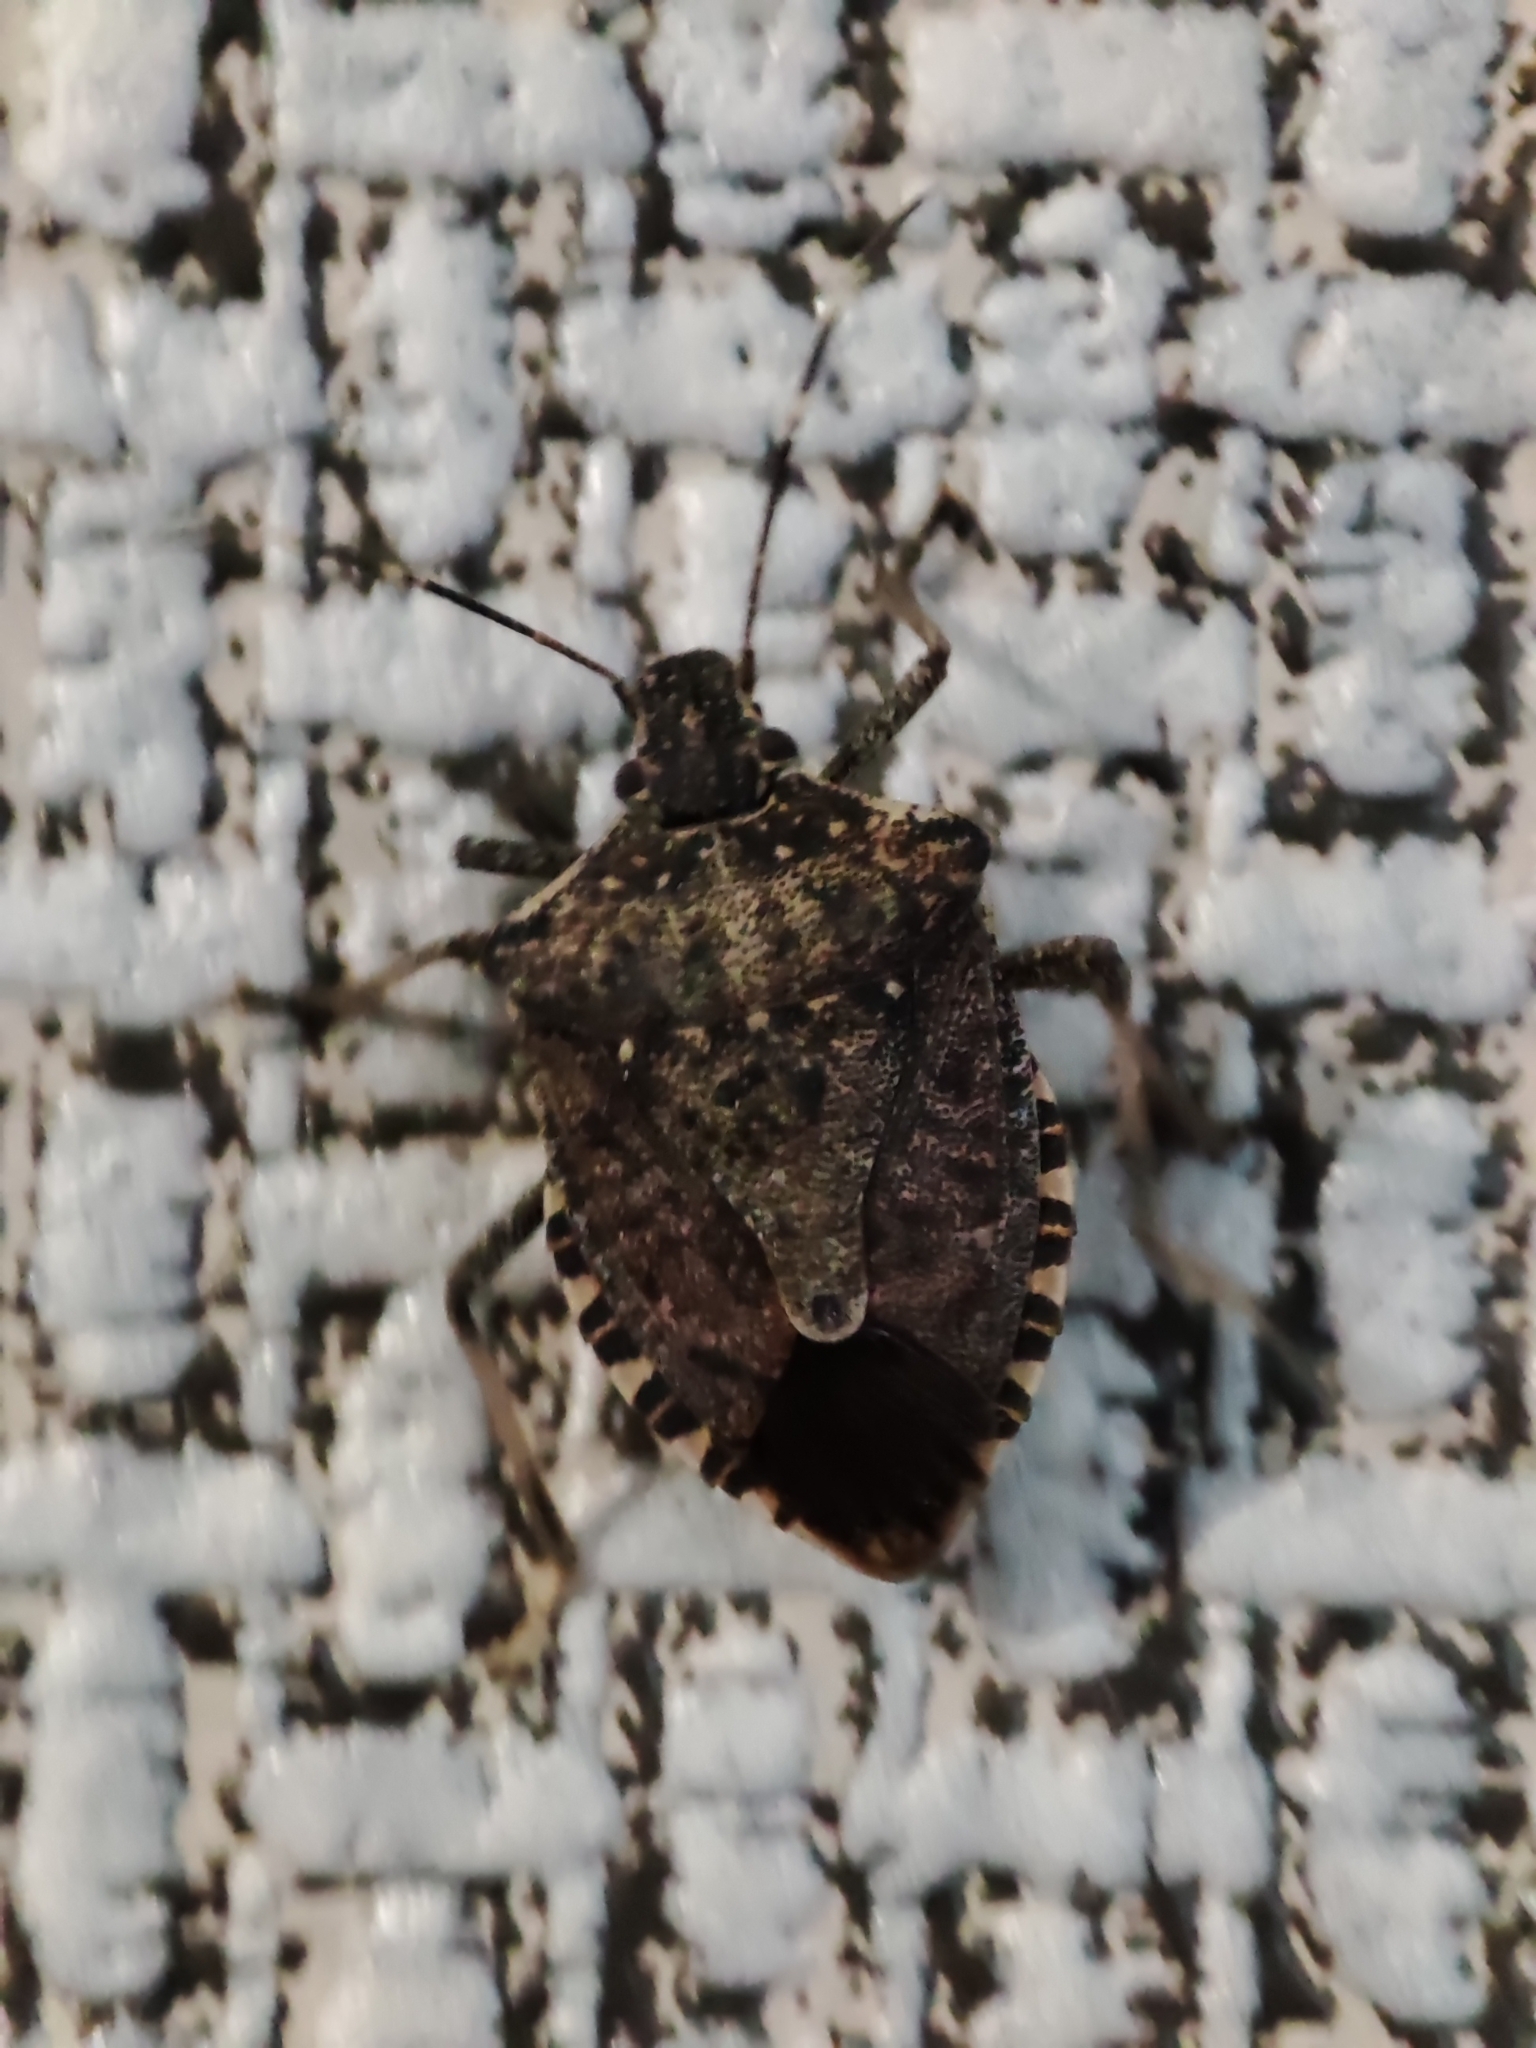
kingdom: Animalia
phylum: Arthropoda
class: Insecta
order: Hemiptera
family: Pentatomidae
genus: Halyomorpha
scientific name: Halyomorpha halys
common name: Brown marmorated stink bug
